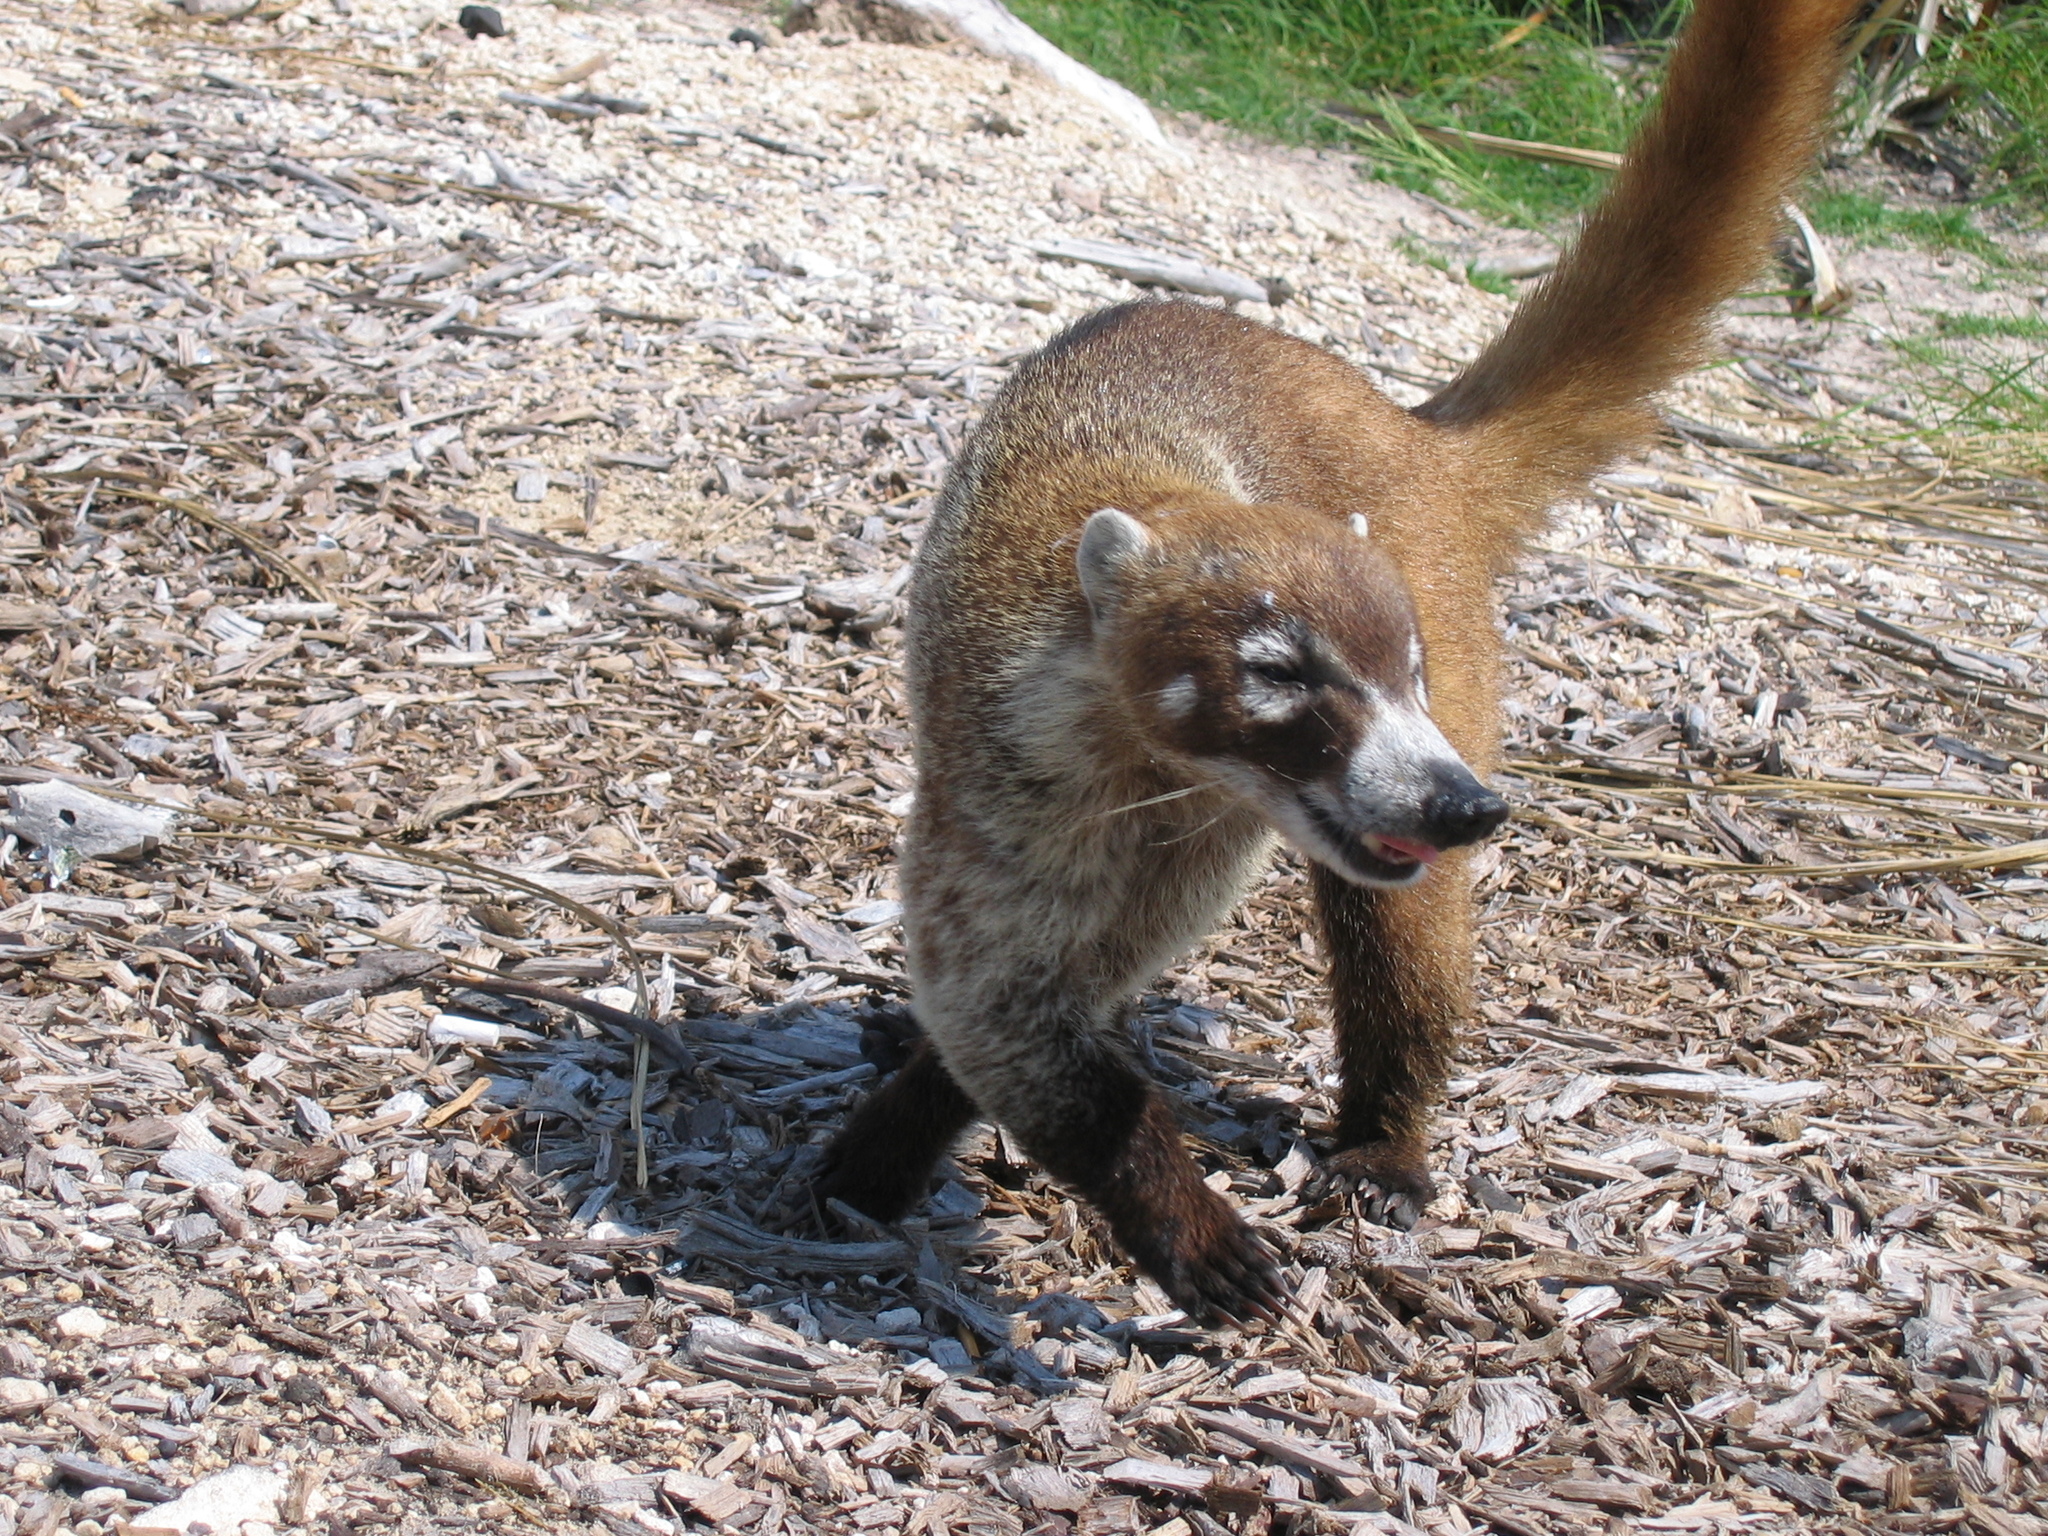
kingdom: Animalia
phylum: Chordata
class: Mammalia
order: Carnivora
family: Procyonidae
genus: Nasua
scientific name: Nasua narica
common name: White-nosed coati
